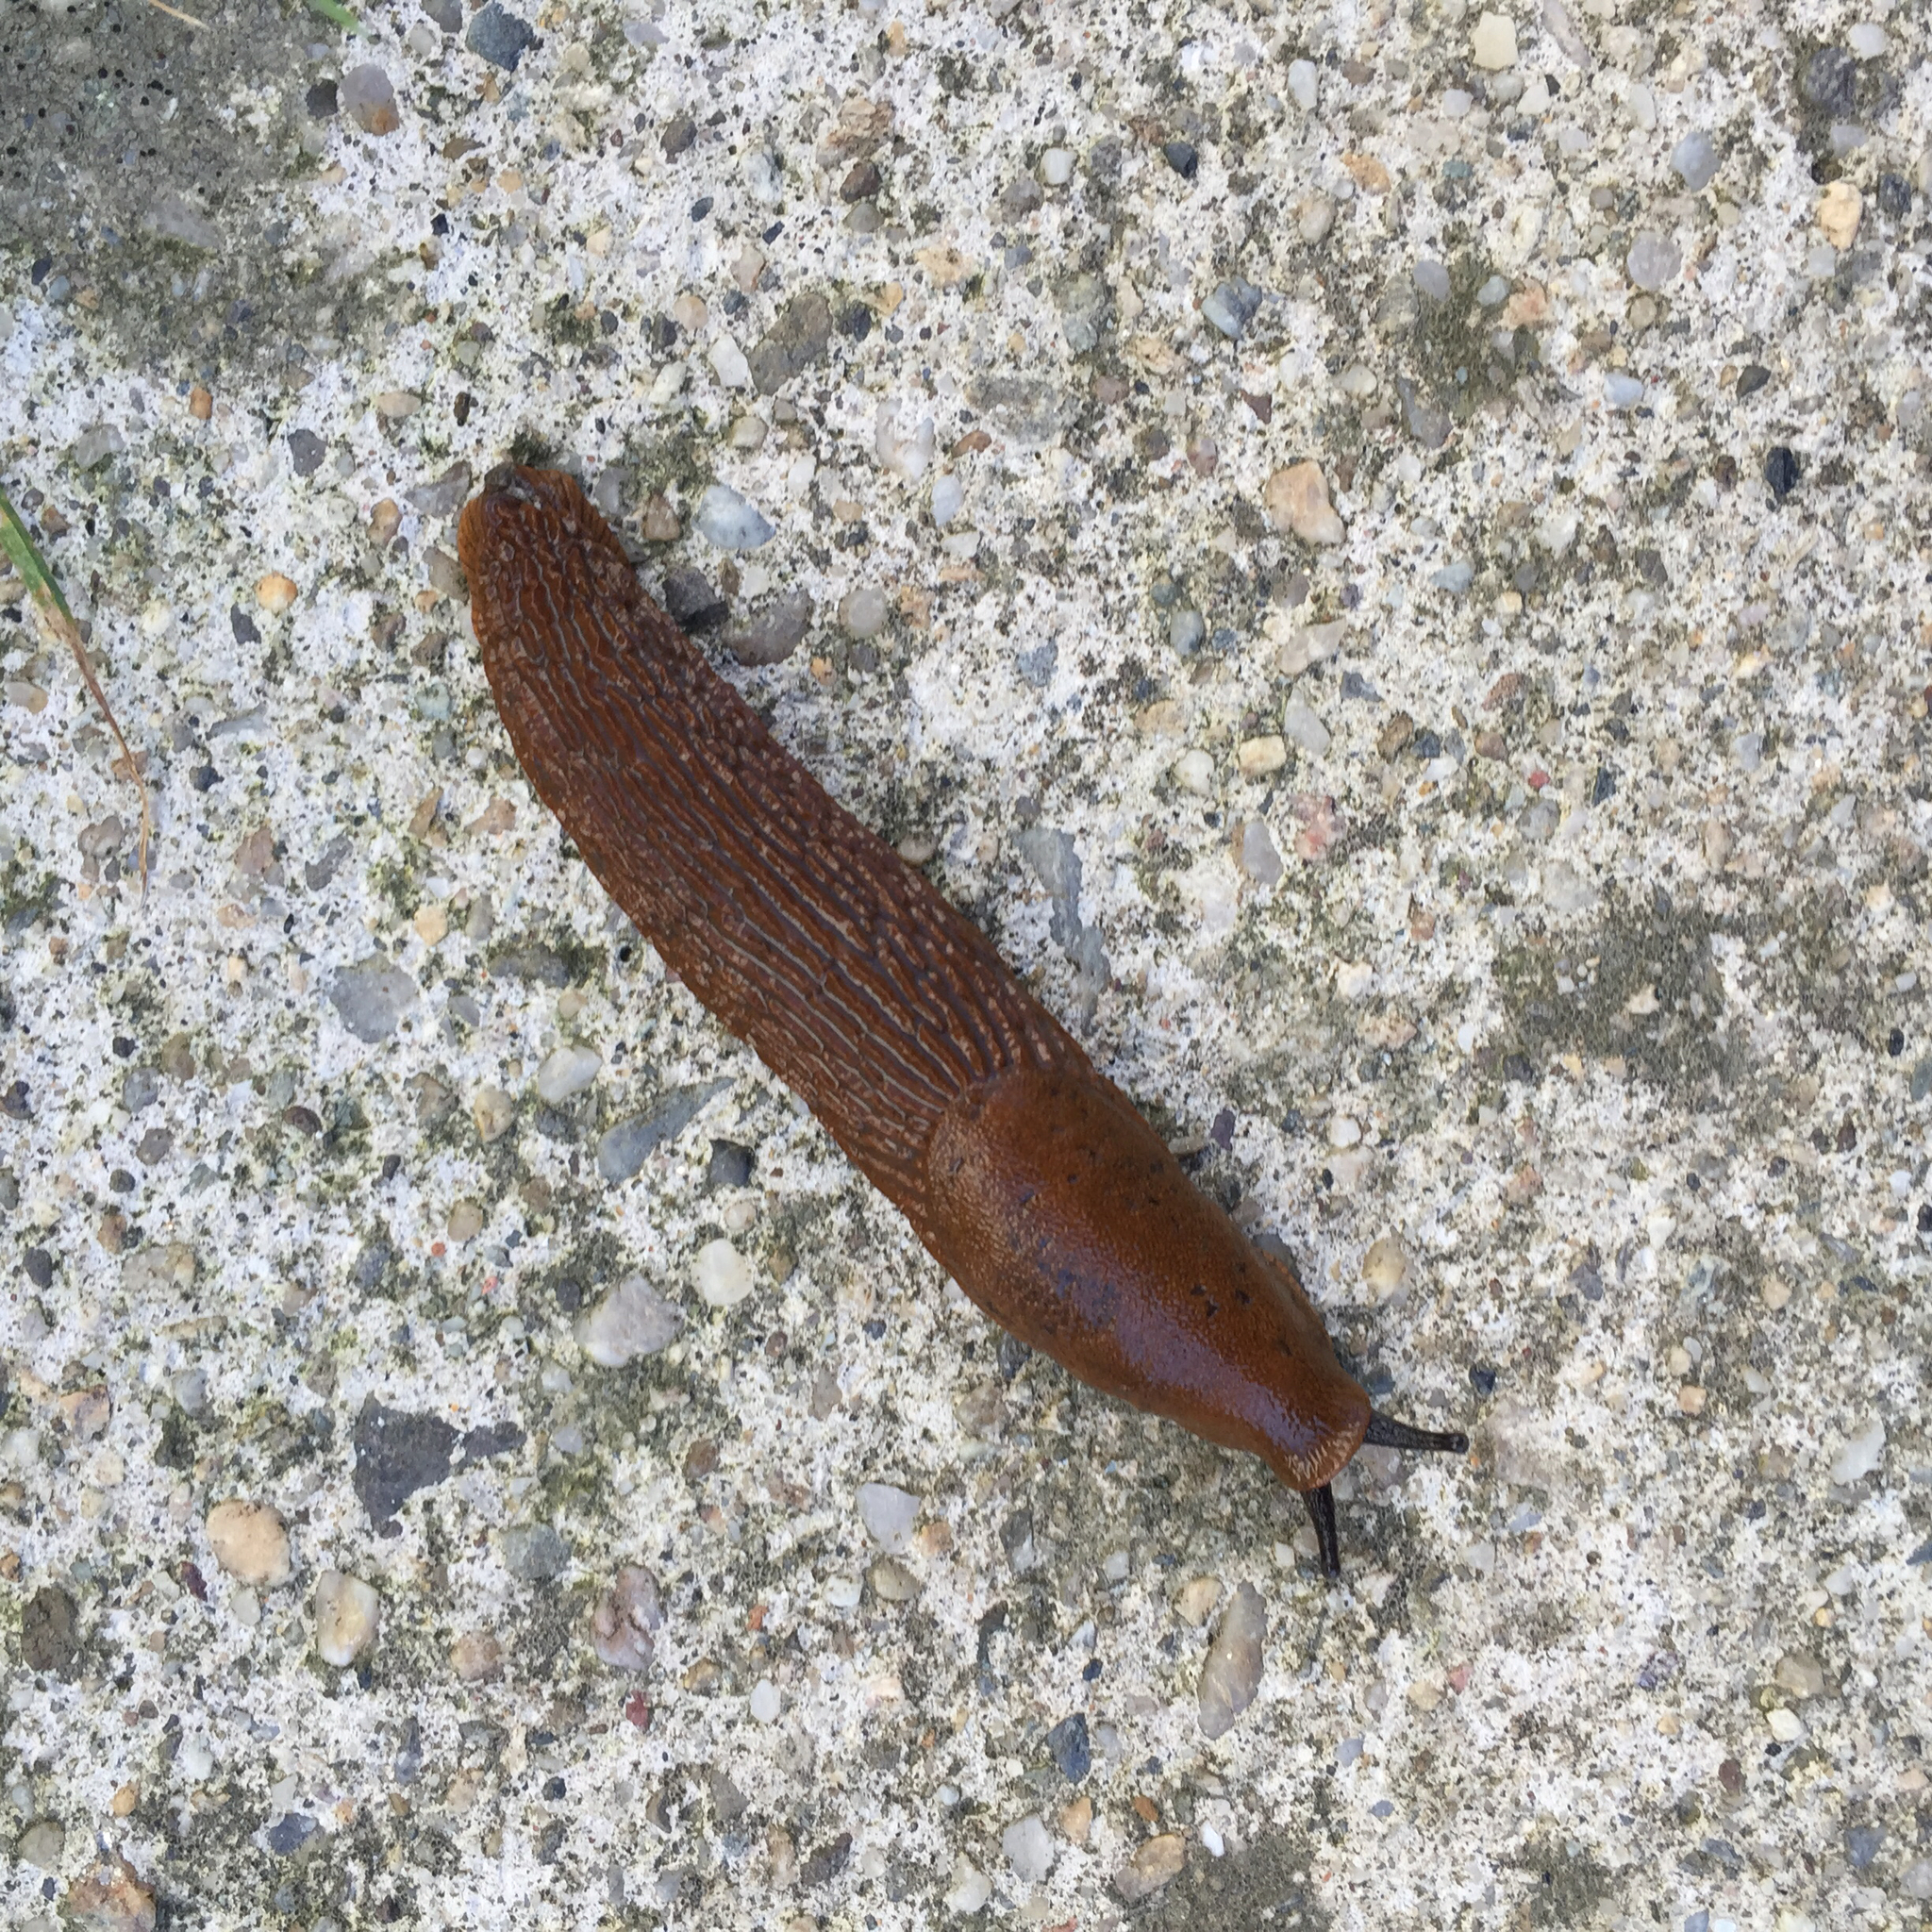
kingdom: Animalia
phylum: Mollusca
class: Gastropoda
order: Stylommatophora
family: Arionidae
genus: Arion
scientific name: Arion vulgaris
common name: Lusitanian slug
